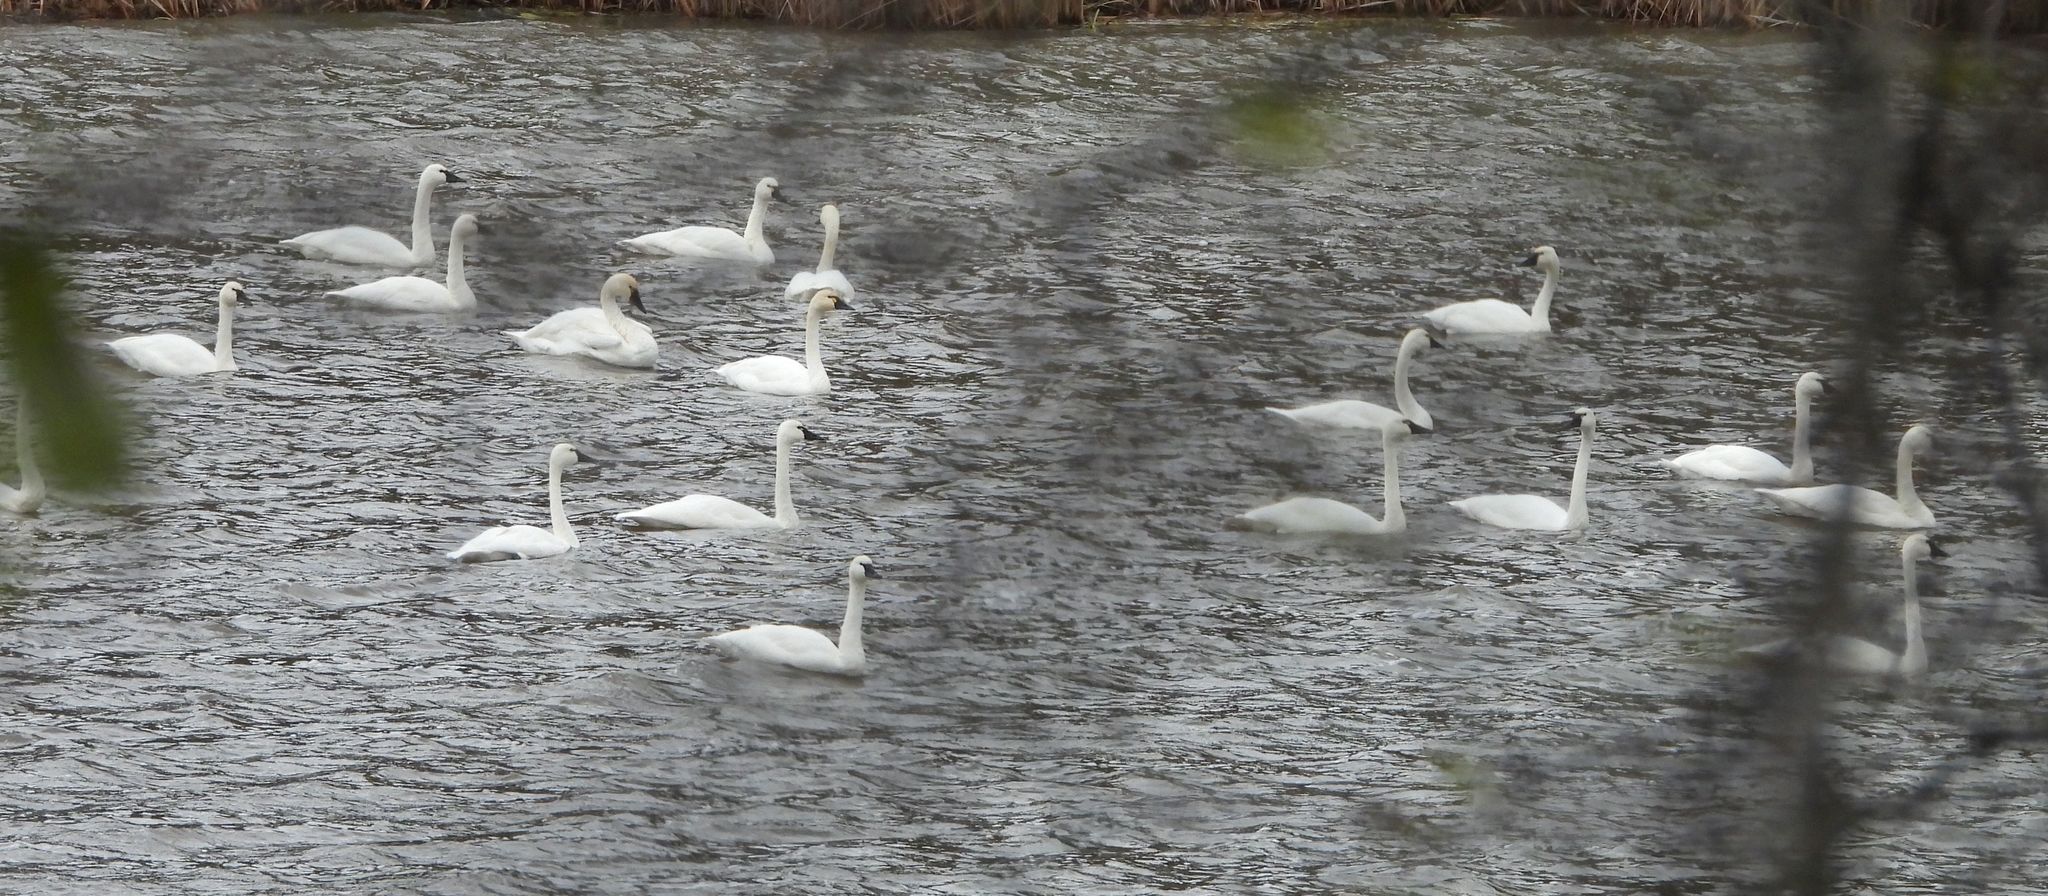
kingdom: Animalia
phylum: Chordata
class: Aves
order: Anseriformes
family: Anatidae
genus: Cygnus
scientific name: Cygnus columbianus
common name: Tundra swan
